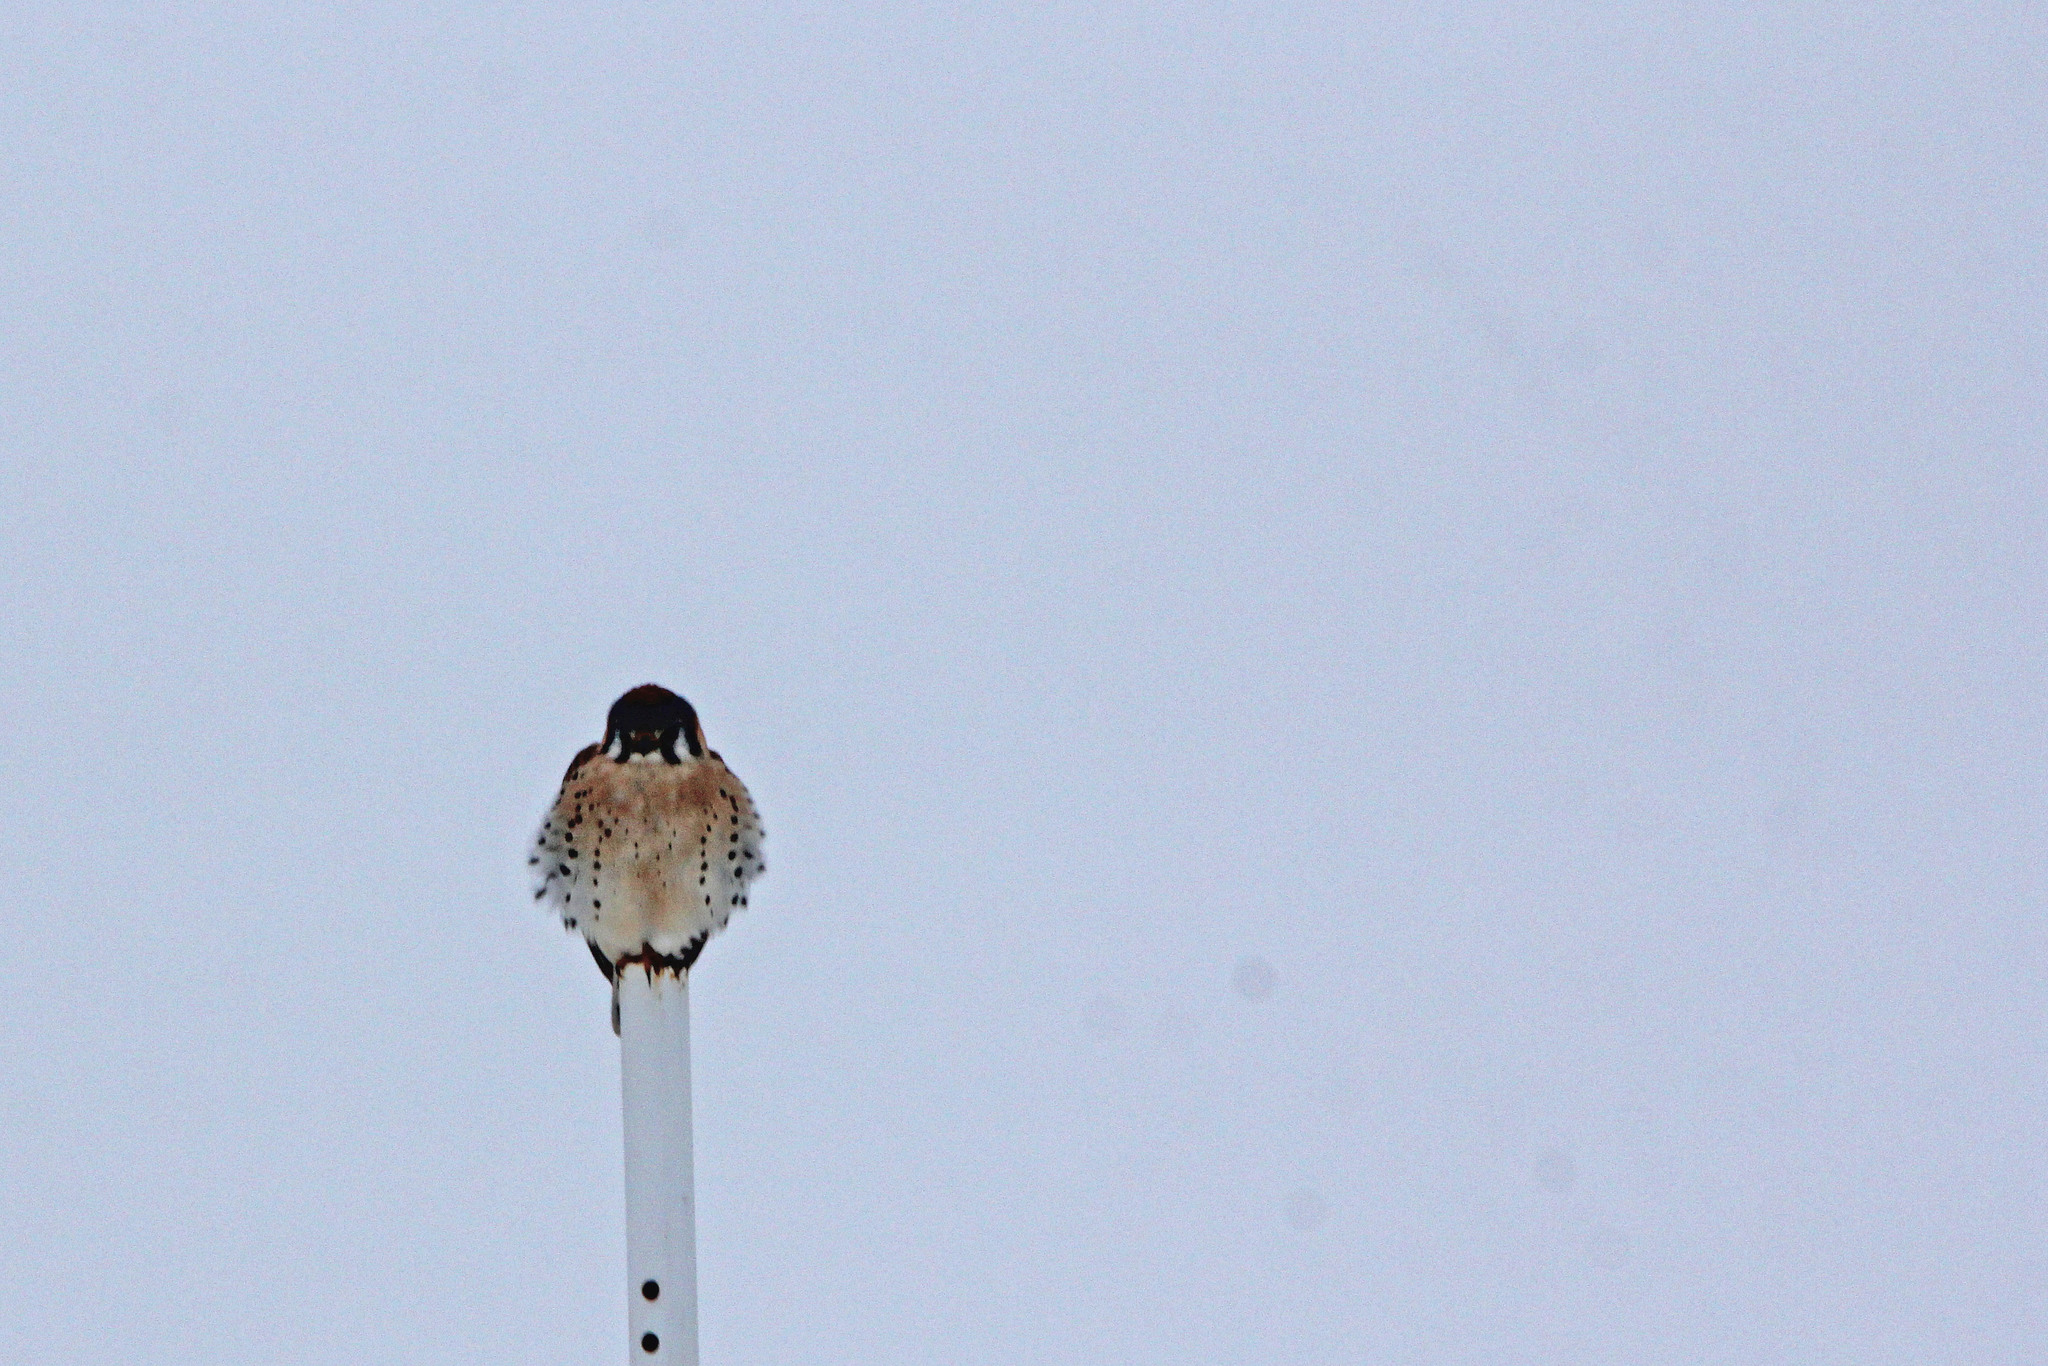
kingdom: Animalia
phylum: Chordata
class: Aves
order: Falconiformes
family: Falconidae
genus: Falco
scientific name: Falco sparverius
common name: American kestrel
